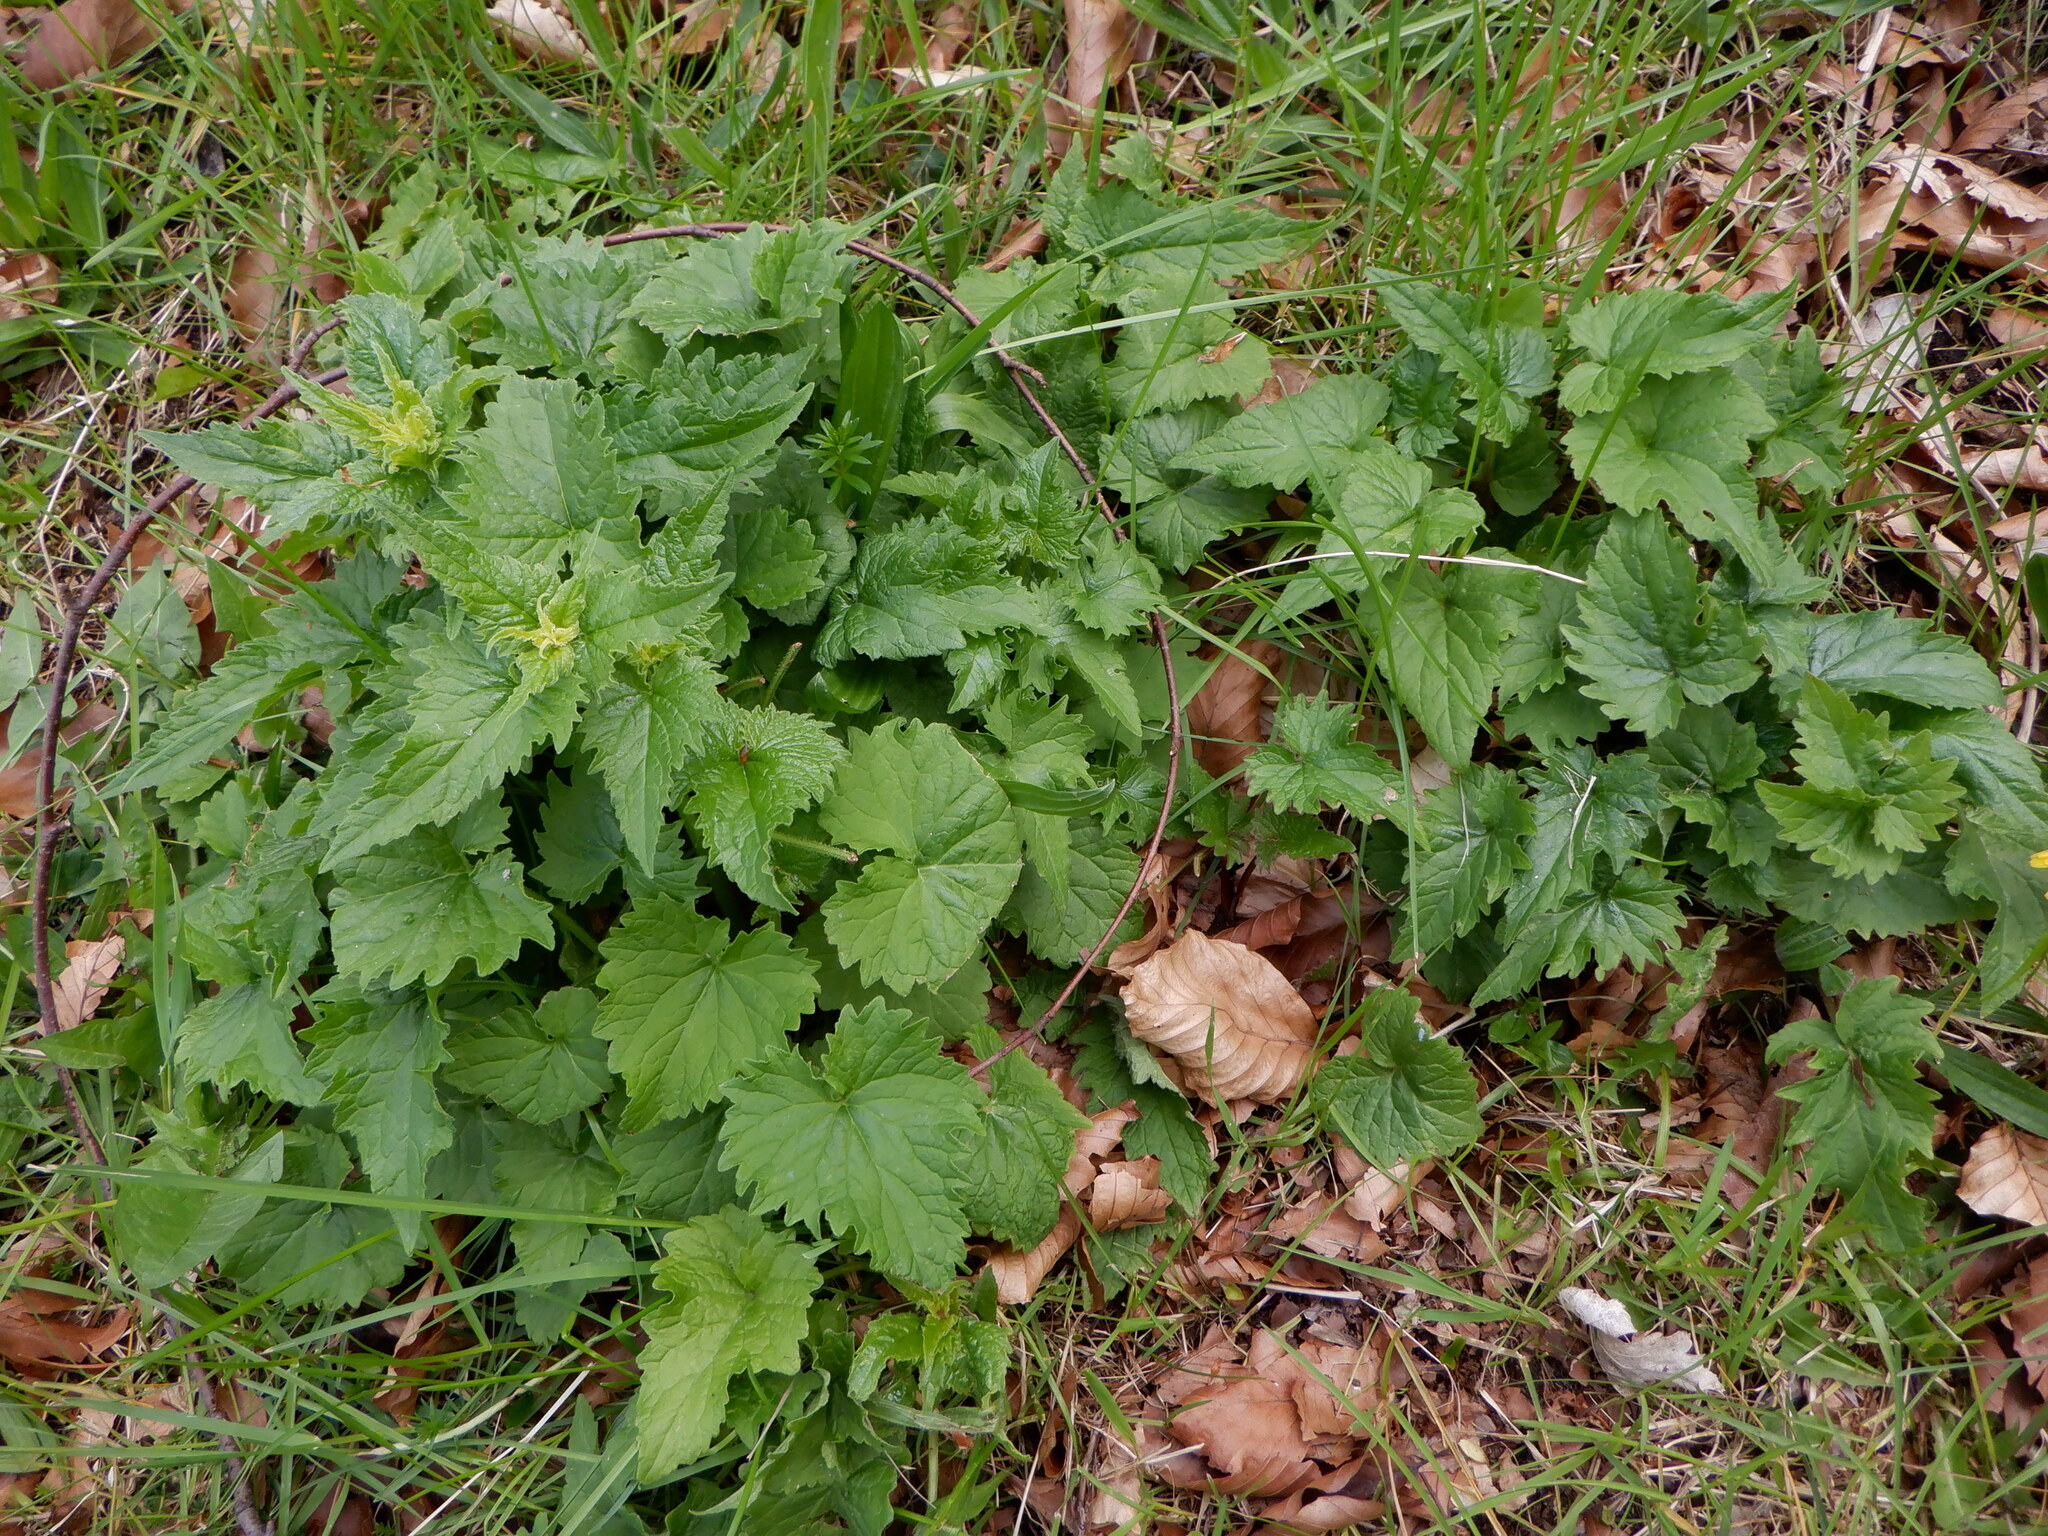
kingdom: Plantae
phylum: Tracheophyta
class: Magnoliopsida
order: Brassicales
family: Brassicaceae
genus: Lunaria
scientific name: Lunaria annua
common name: Honesty
